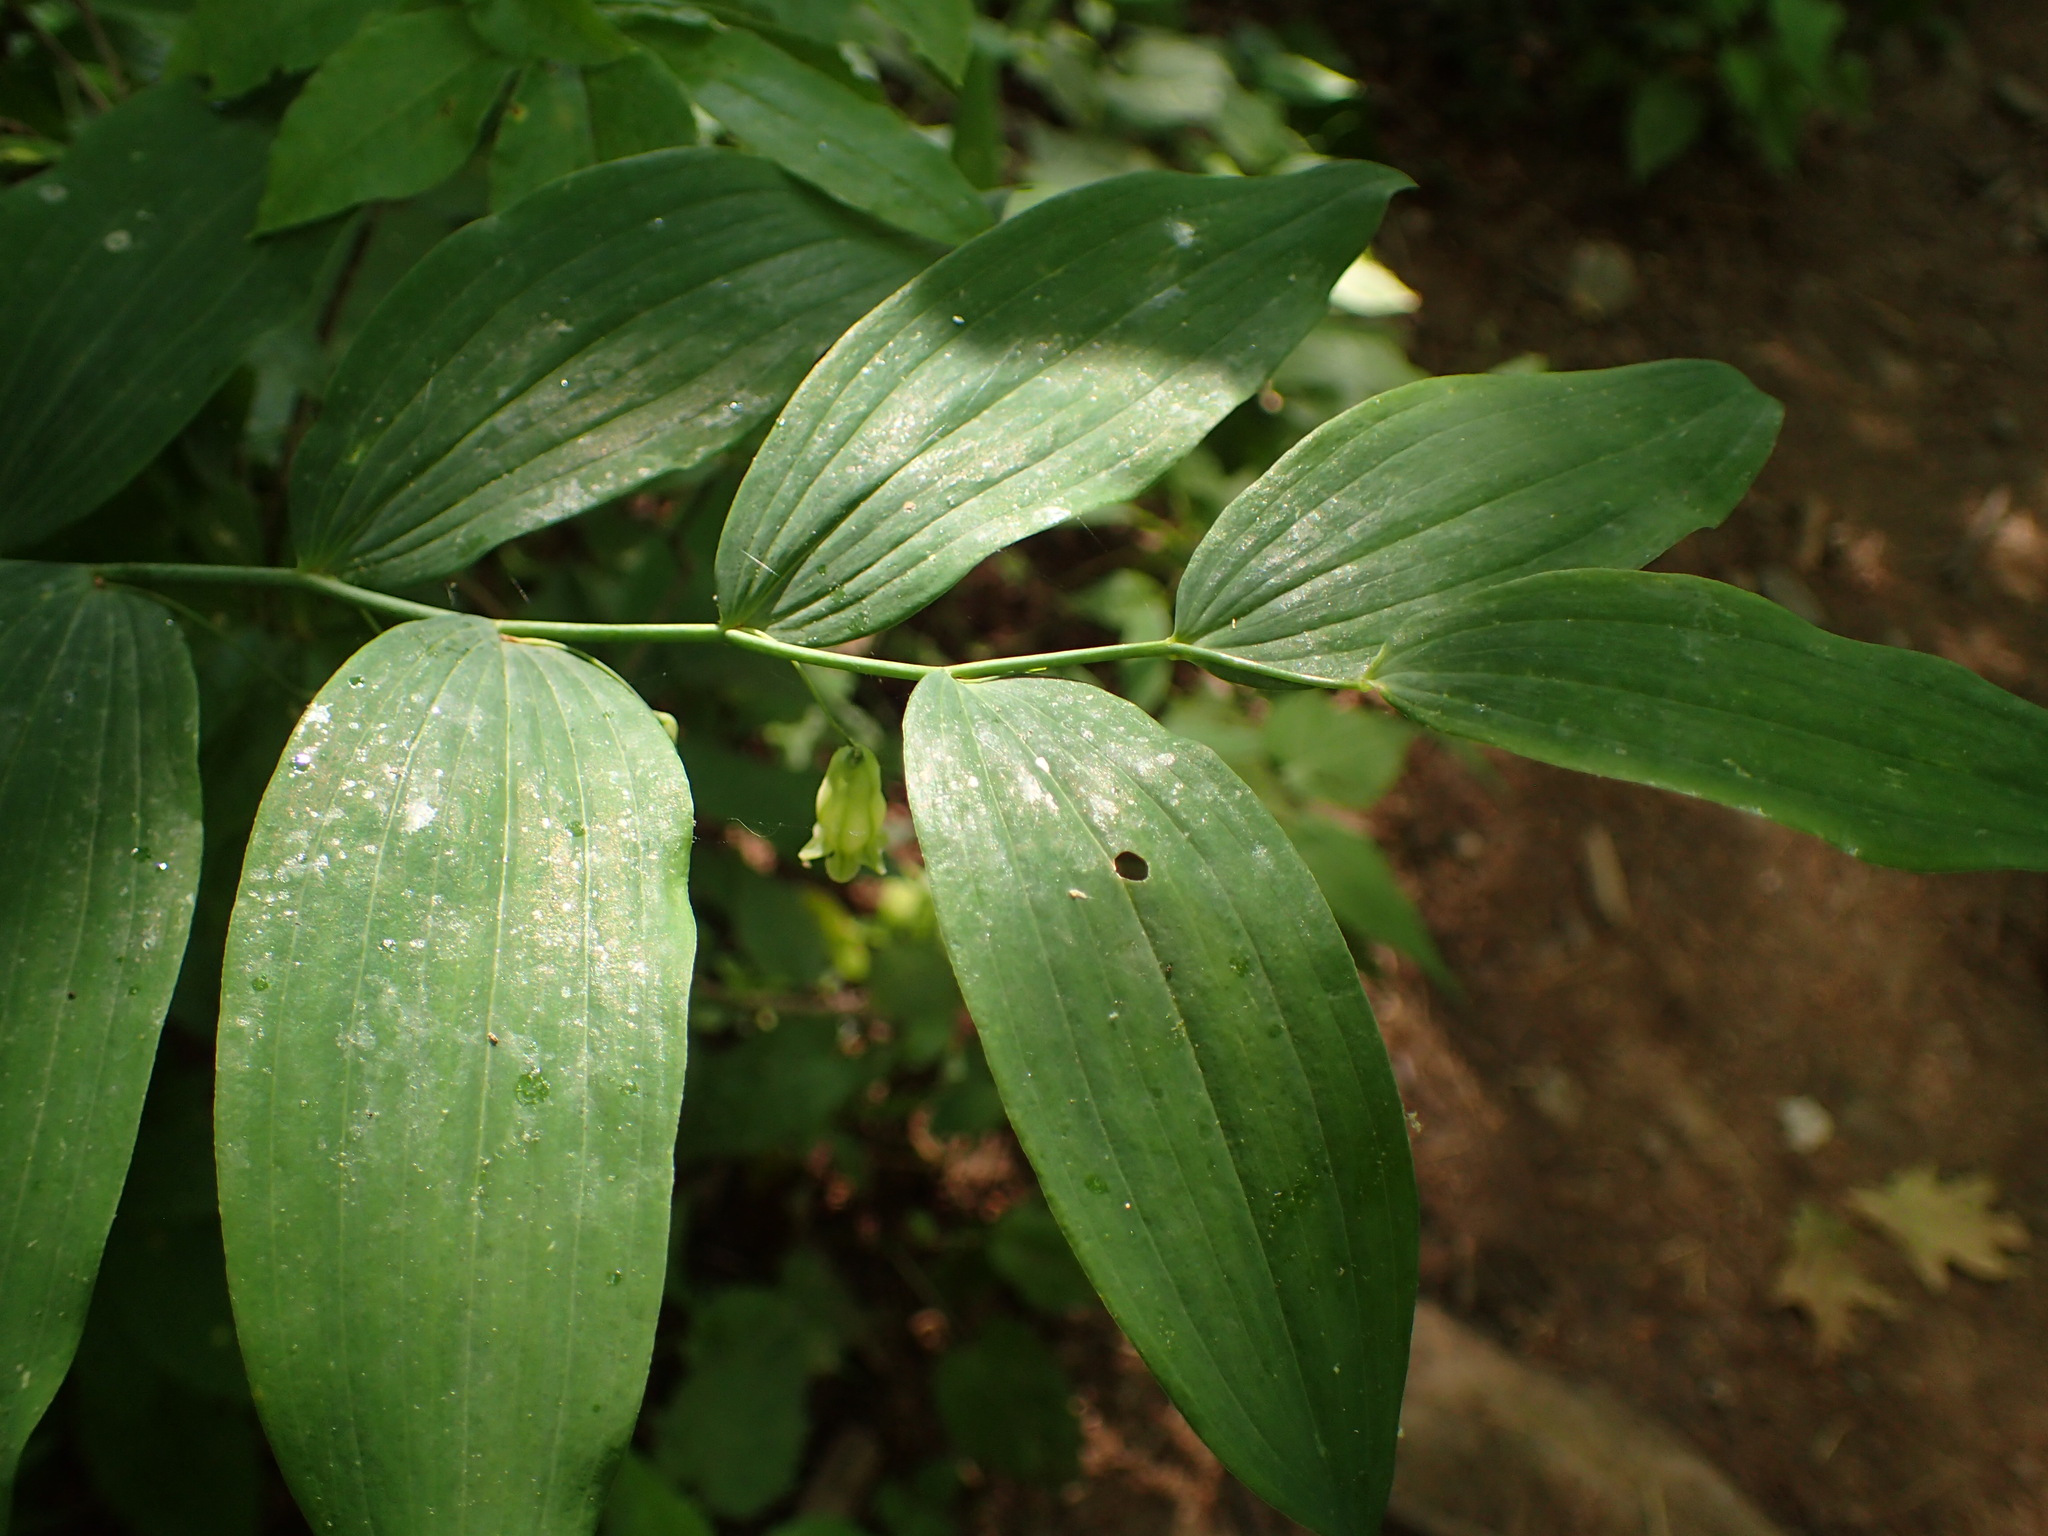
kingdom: Plantae
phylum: Tracheophyta
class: Liliopsida
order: Asparagales
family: Asparagaceae
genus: Polygonatum
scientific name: Polygonatum biflorum
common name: American solomon's-seal
